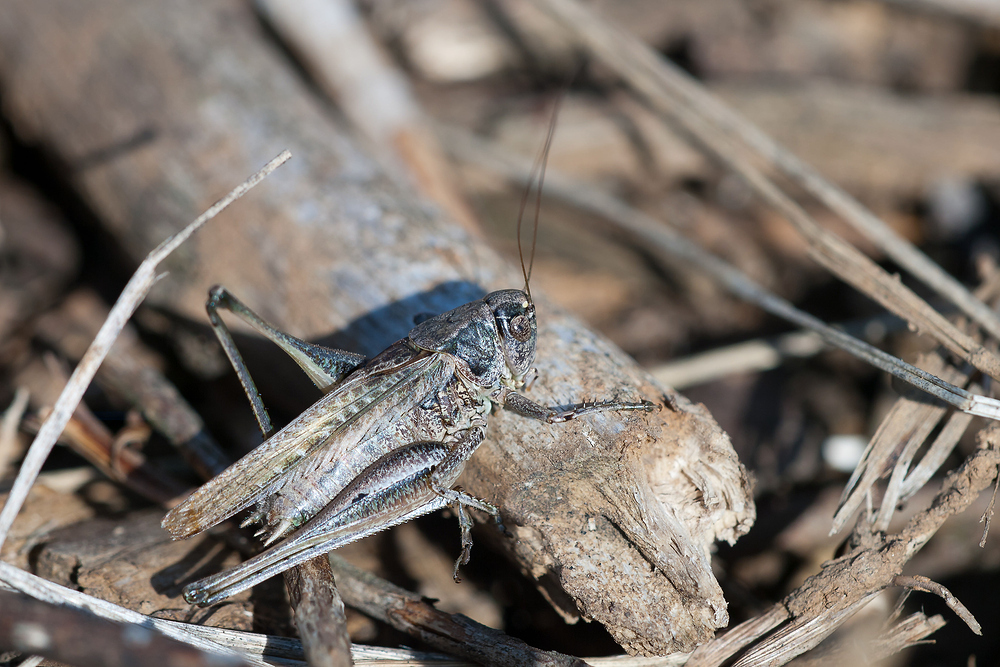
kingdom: Animalia
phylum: Arthropoda
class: Insecta
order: Orthoptera
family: Tettigoniidae
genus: Platycleis
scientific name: Platycleis albopunctata
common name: Grey bush-cricket
